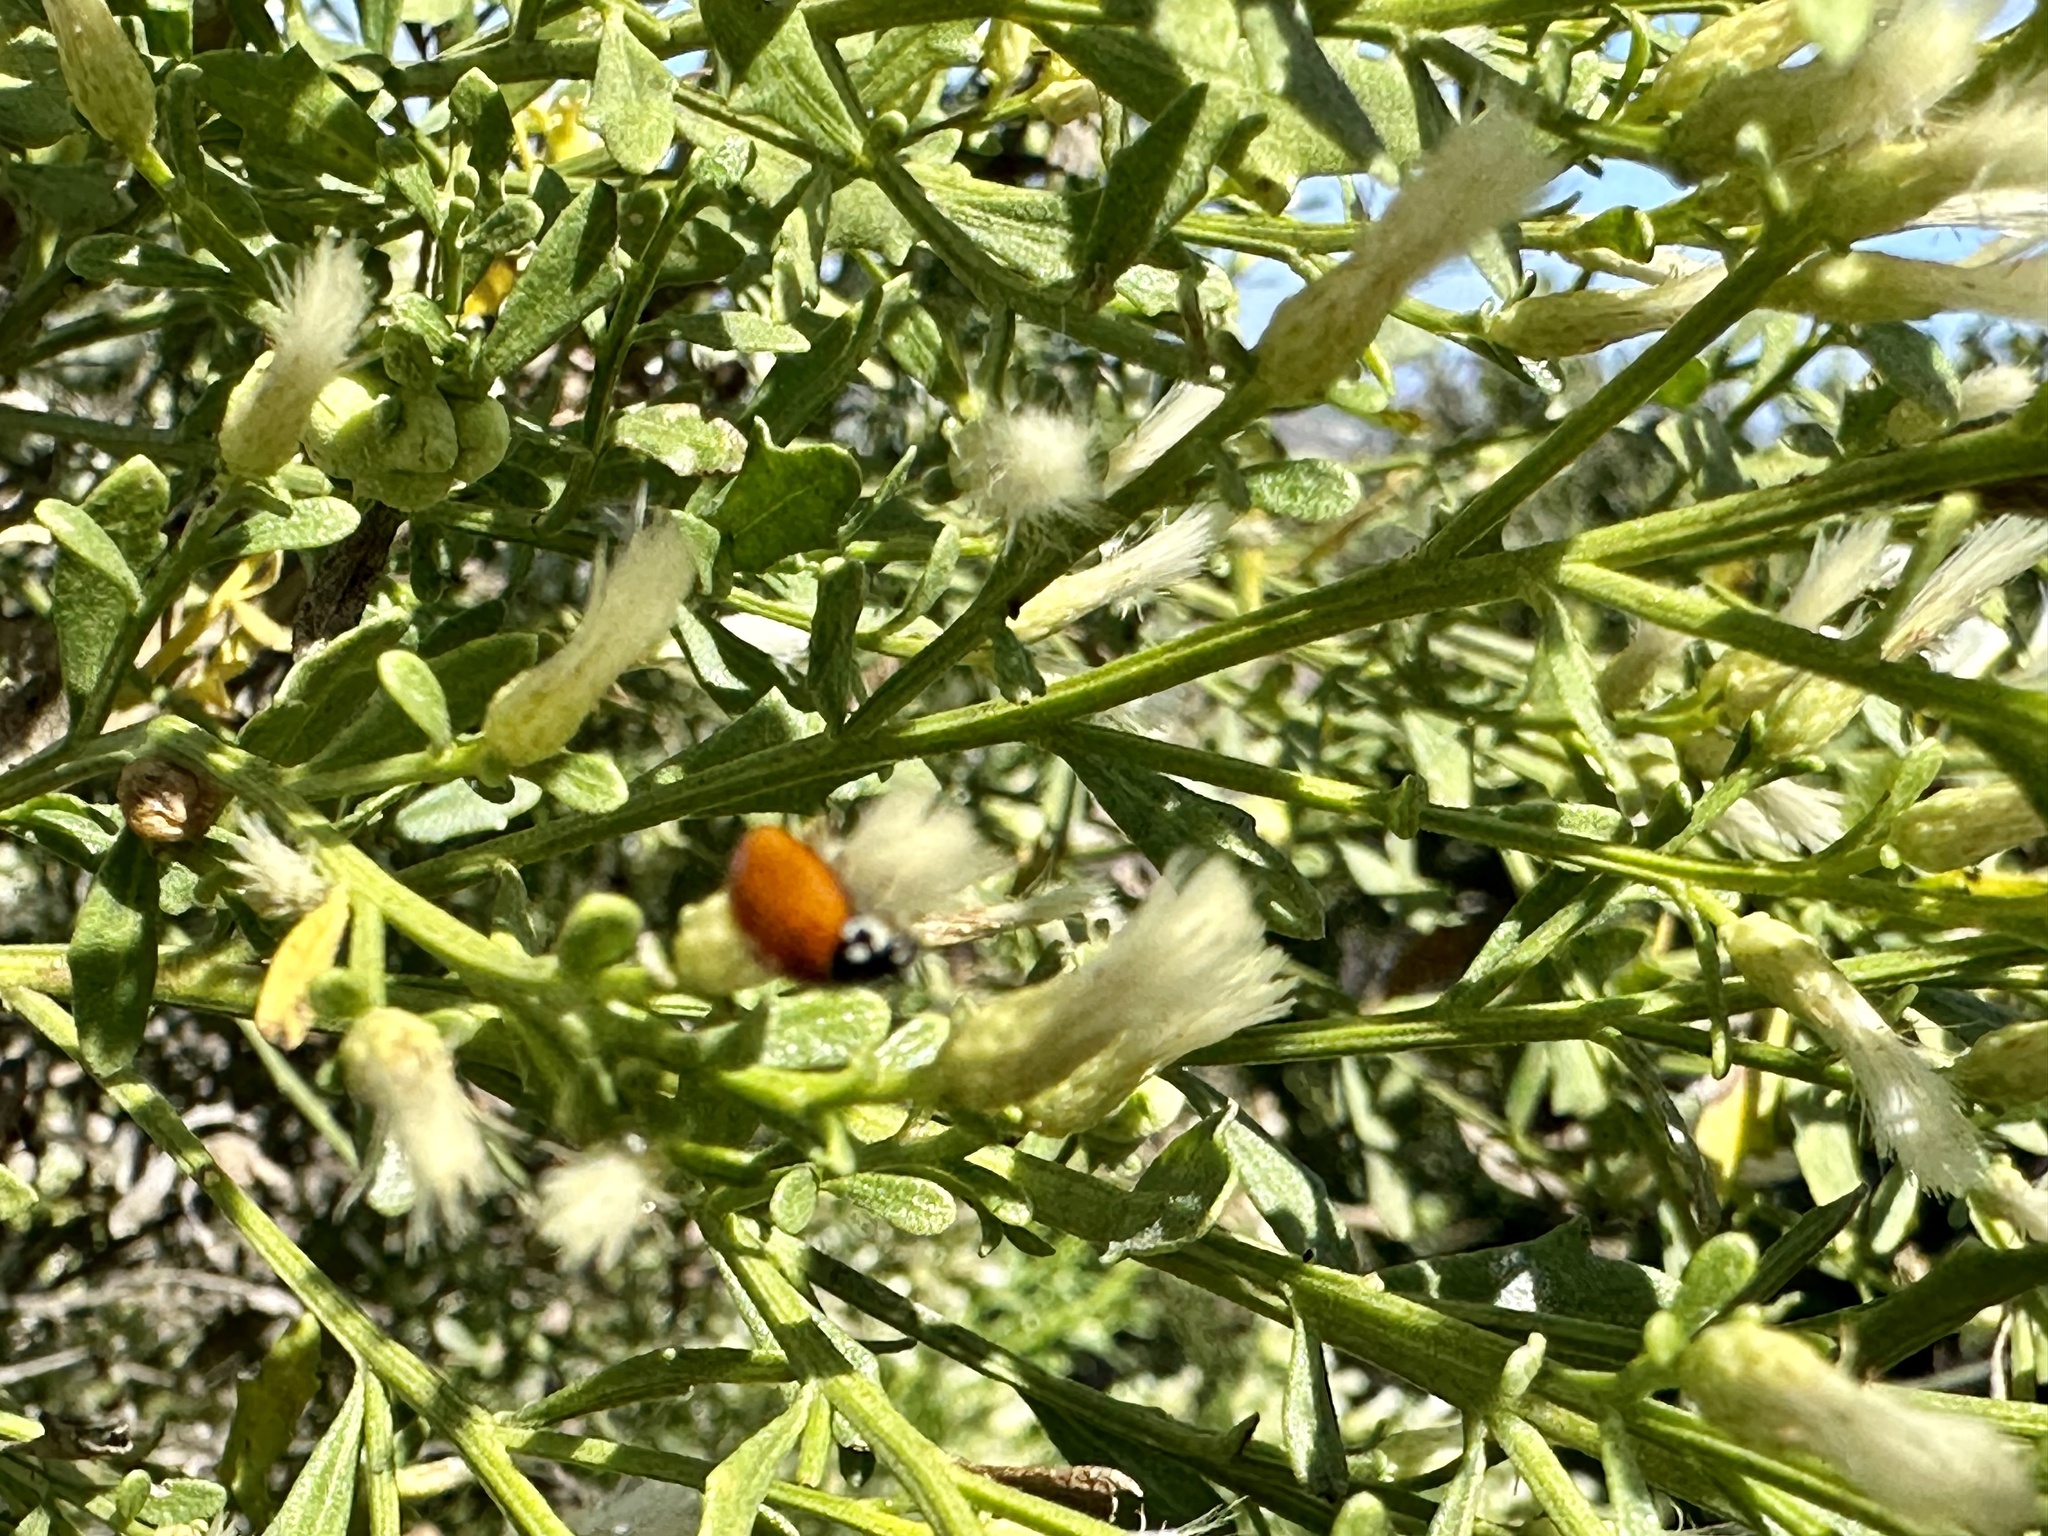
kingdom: Plantae
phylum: Tracheophyta
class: Magnoliopsida
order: Asterales
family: Asteraceae
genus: Baccharis
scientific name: Baccharis pilularis
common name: Coyotebrush
